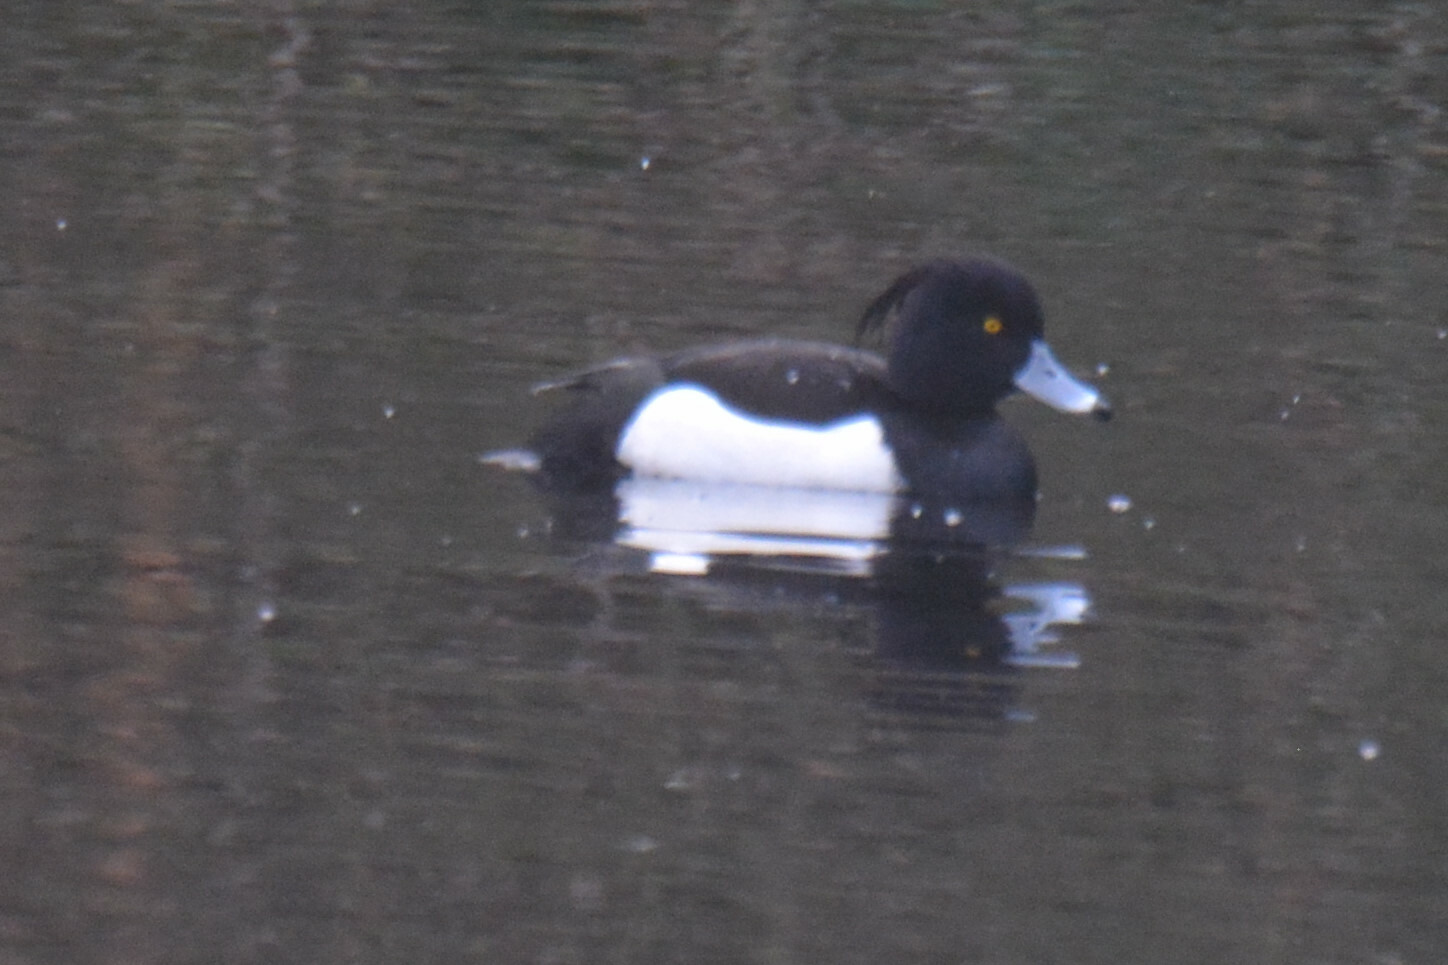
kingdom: Animalia
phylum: Chordata
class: Aves
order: Anseriformes
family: Anatidae
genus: Aythya
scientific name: Aythya fuligula
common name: Tufted duck
